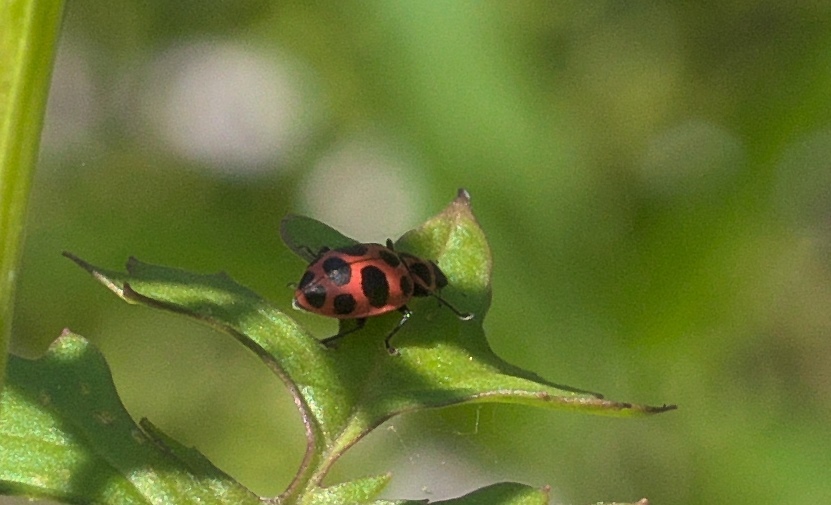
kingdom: Animalia
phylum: Arthropoda
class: Insecta
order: Coleoptera
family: Coccinellidae
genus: Coleomegilla
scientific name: Coleomegilla maculata
